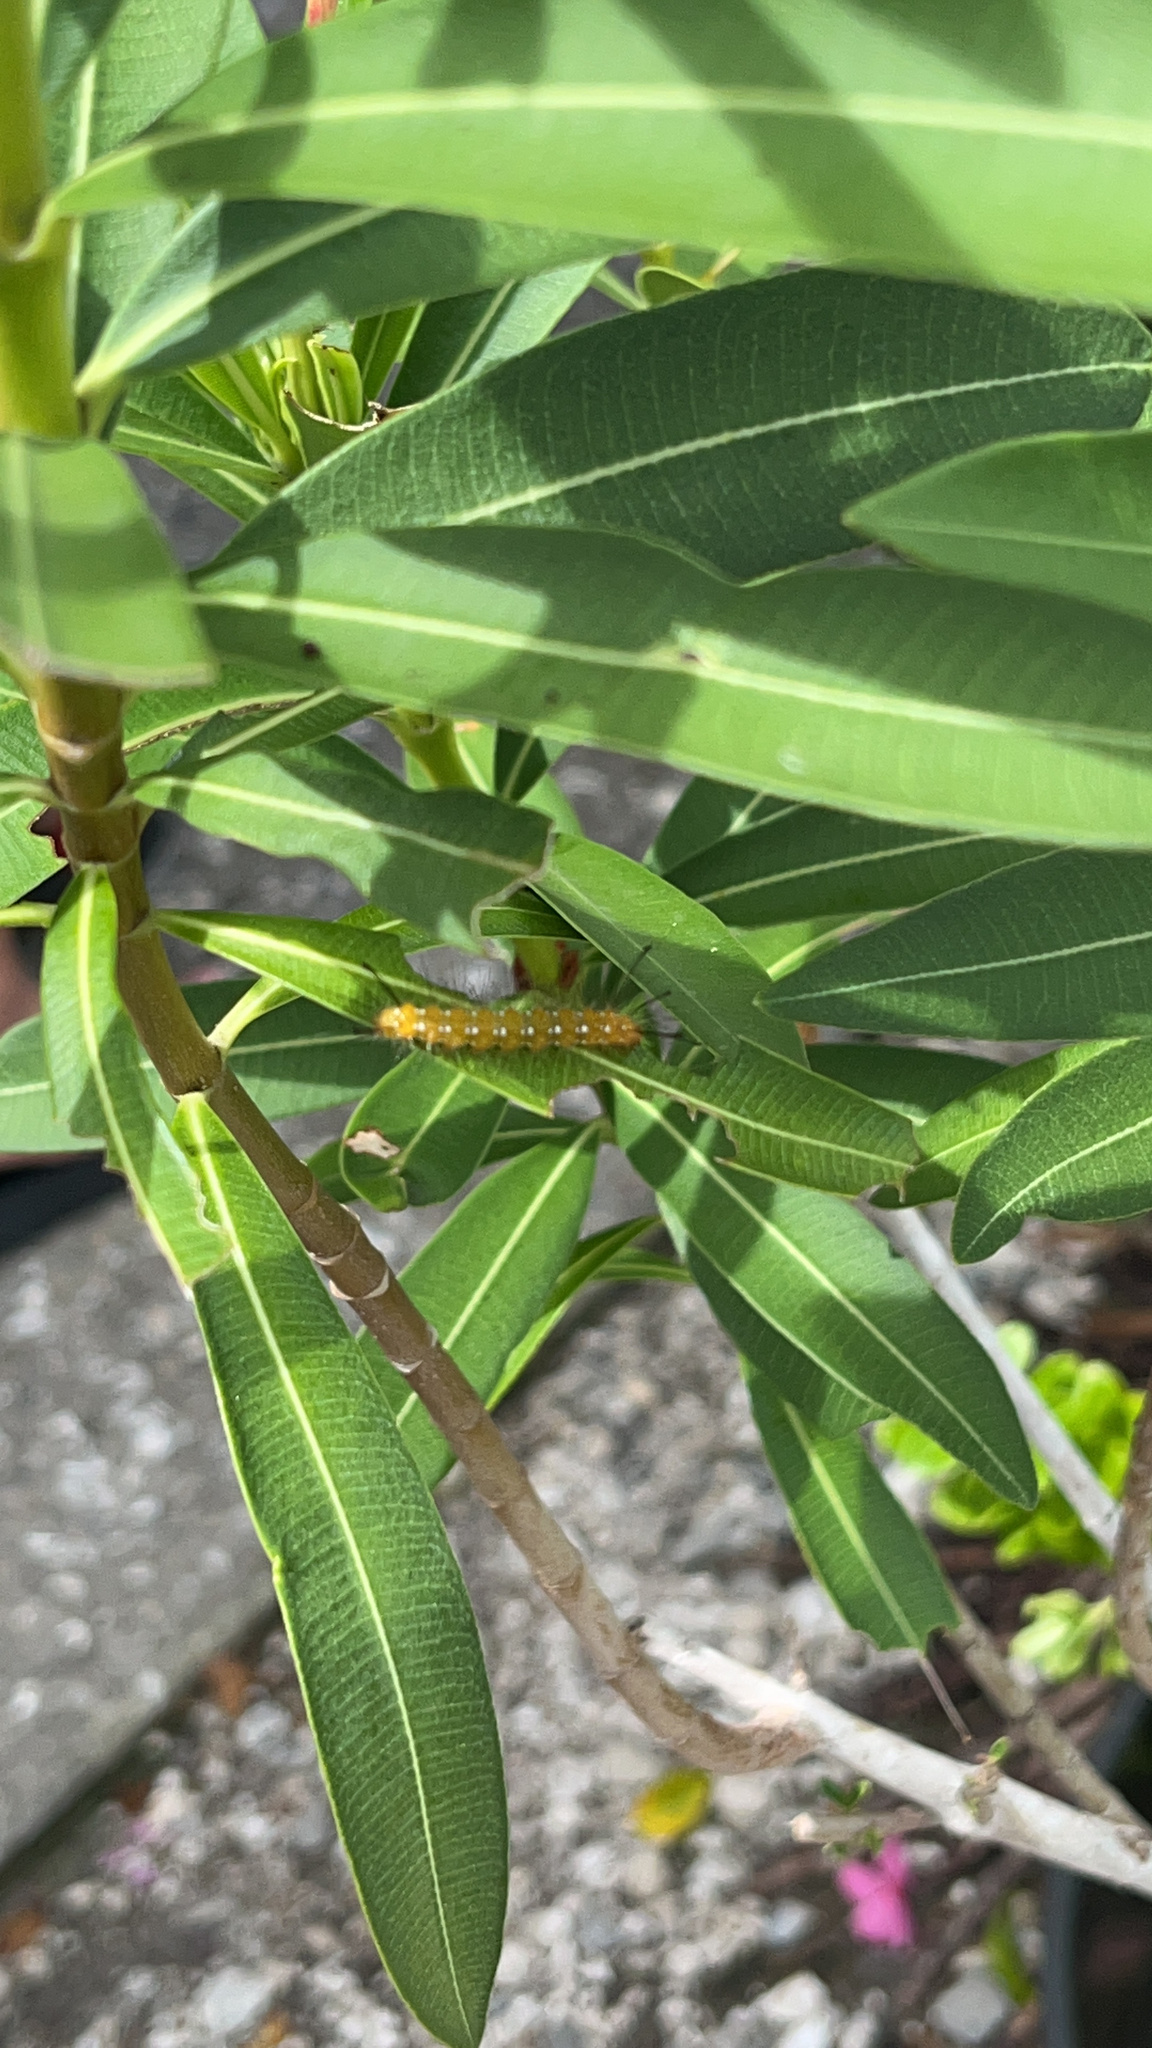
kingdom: Animalia
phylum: Arthropoda
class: Insecta
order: Lepidoptera
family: Erebidae
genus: Empyreuma
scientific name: Empyreuma pugione
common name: Spotted oleander caterpillar moth
